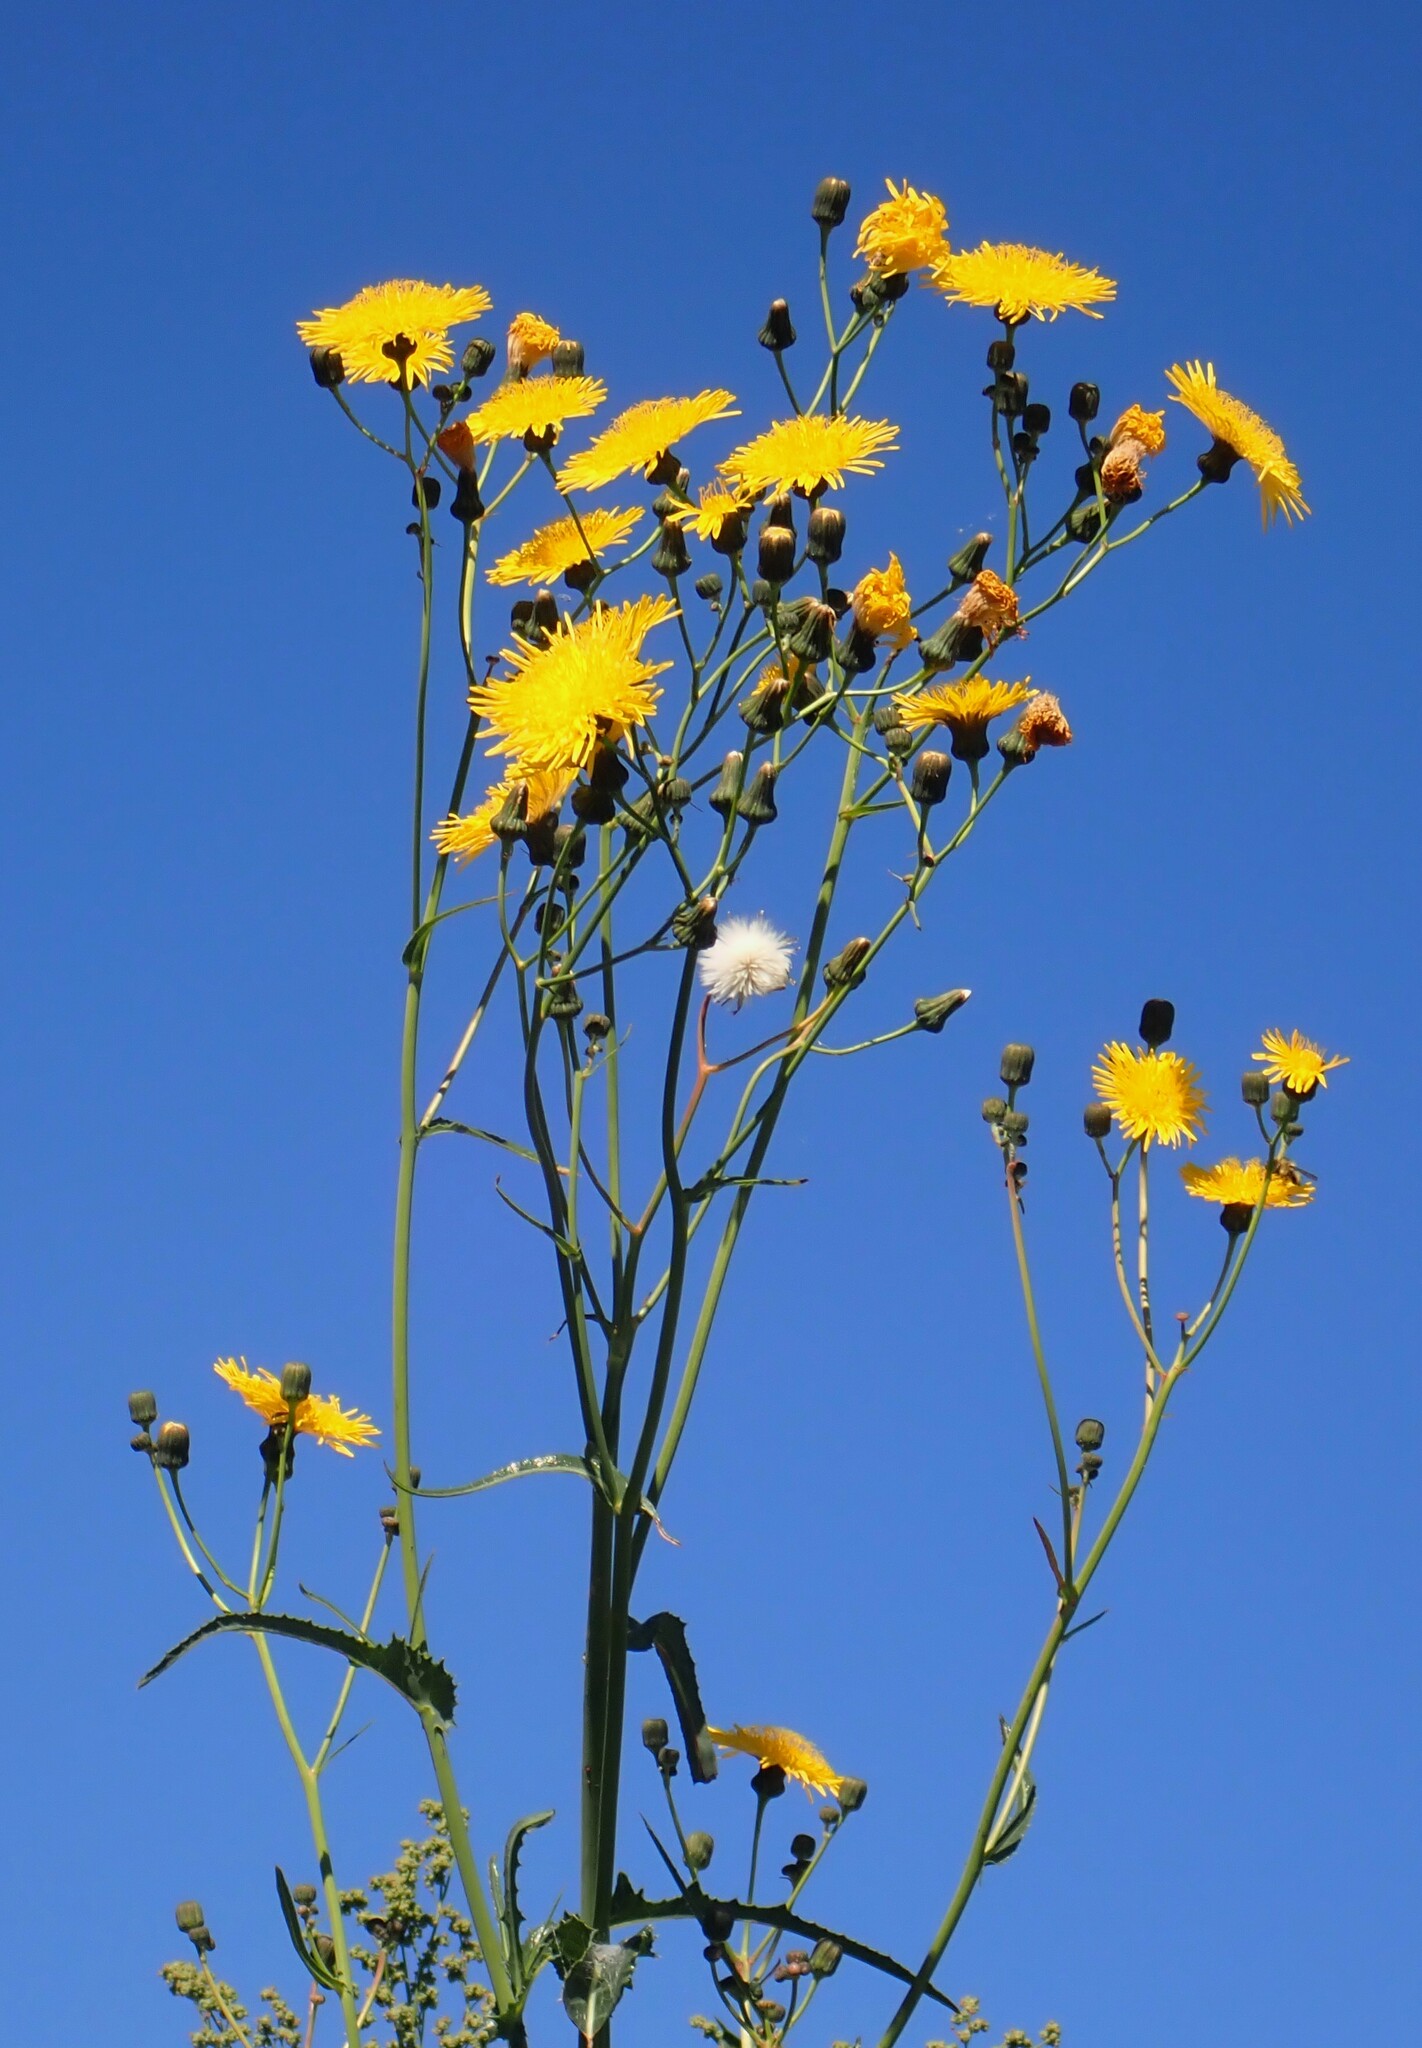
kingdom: Plantae
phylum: Tracheophyta
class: Magnoliopsida
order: Asterales
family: Asteraceae
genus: Sonchus
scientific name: Sonchus arvensis
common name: Perennial sow-thistle
